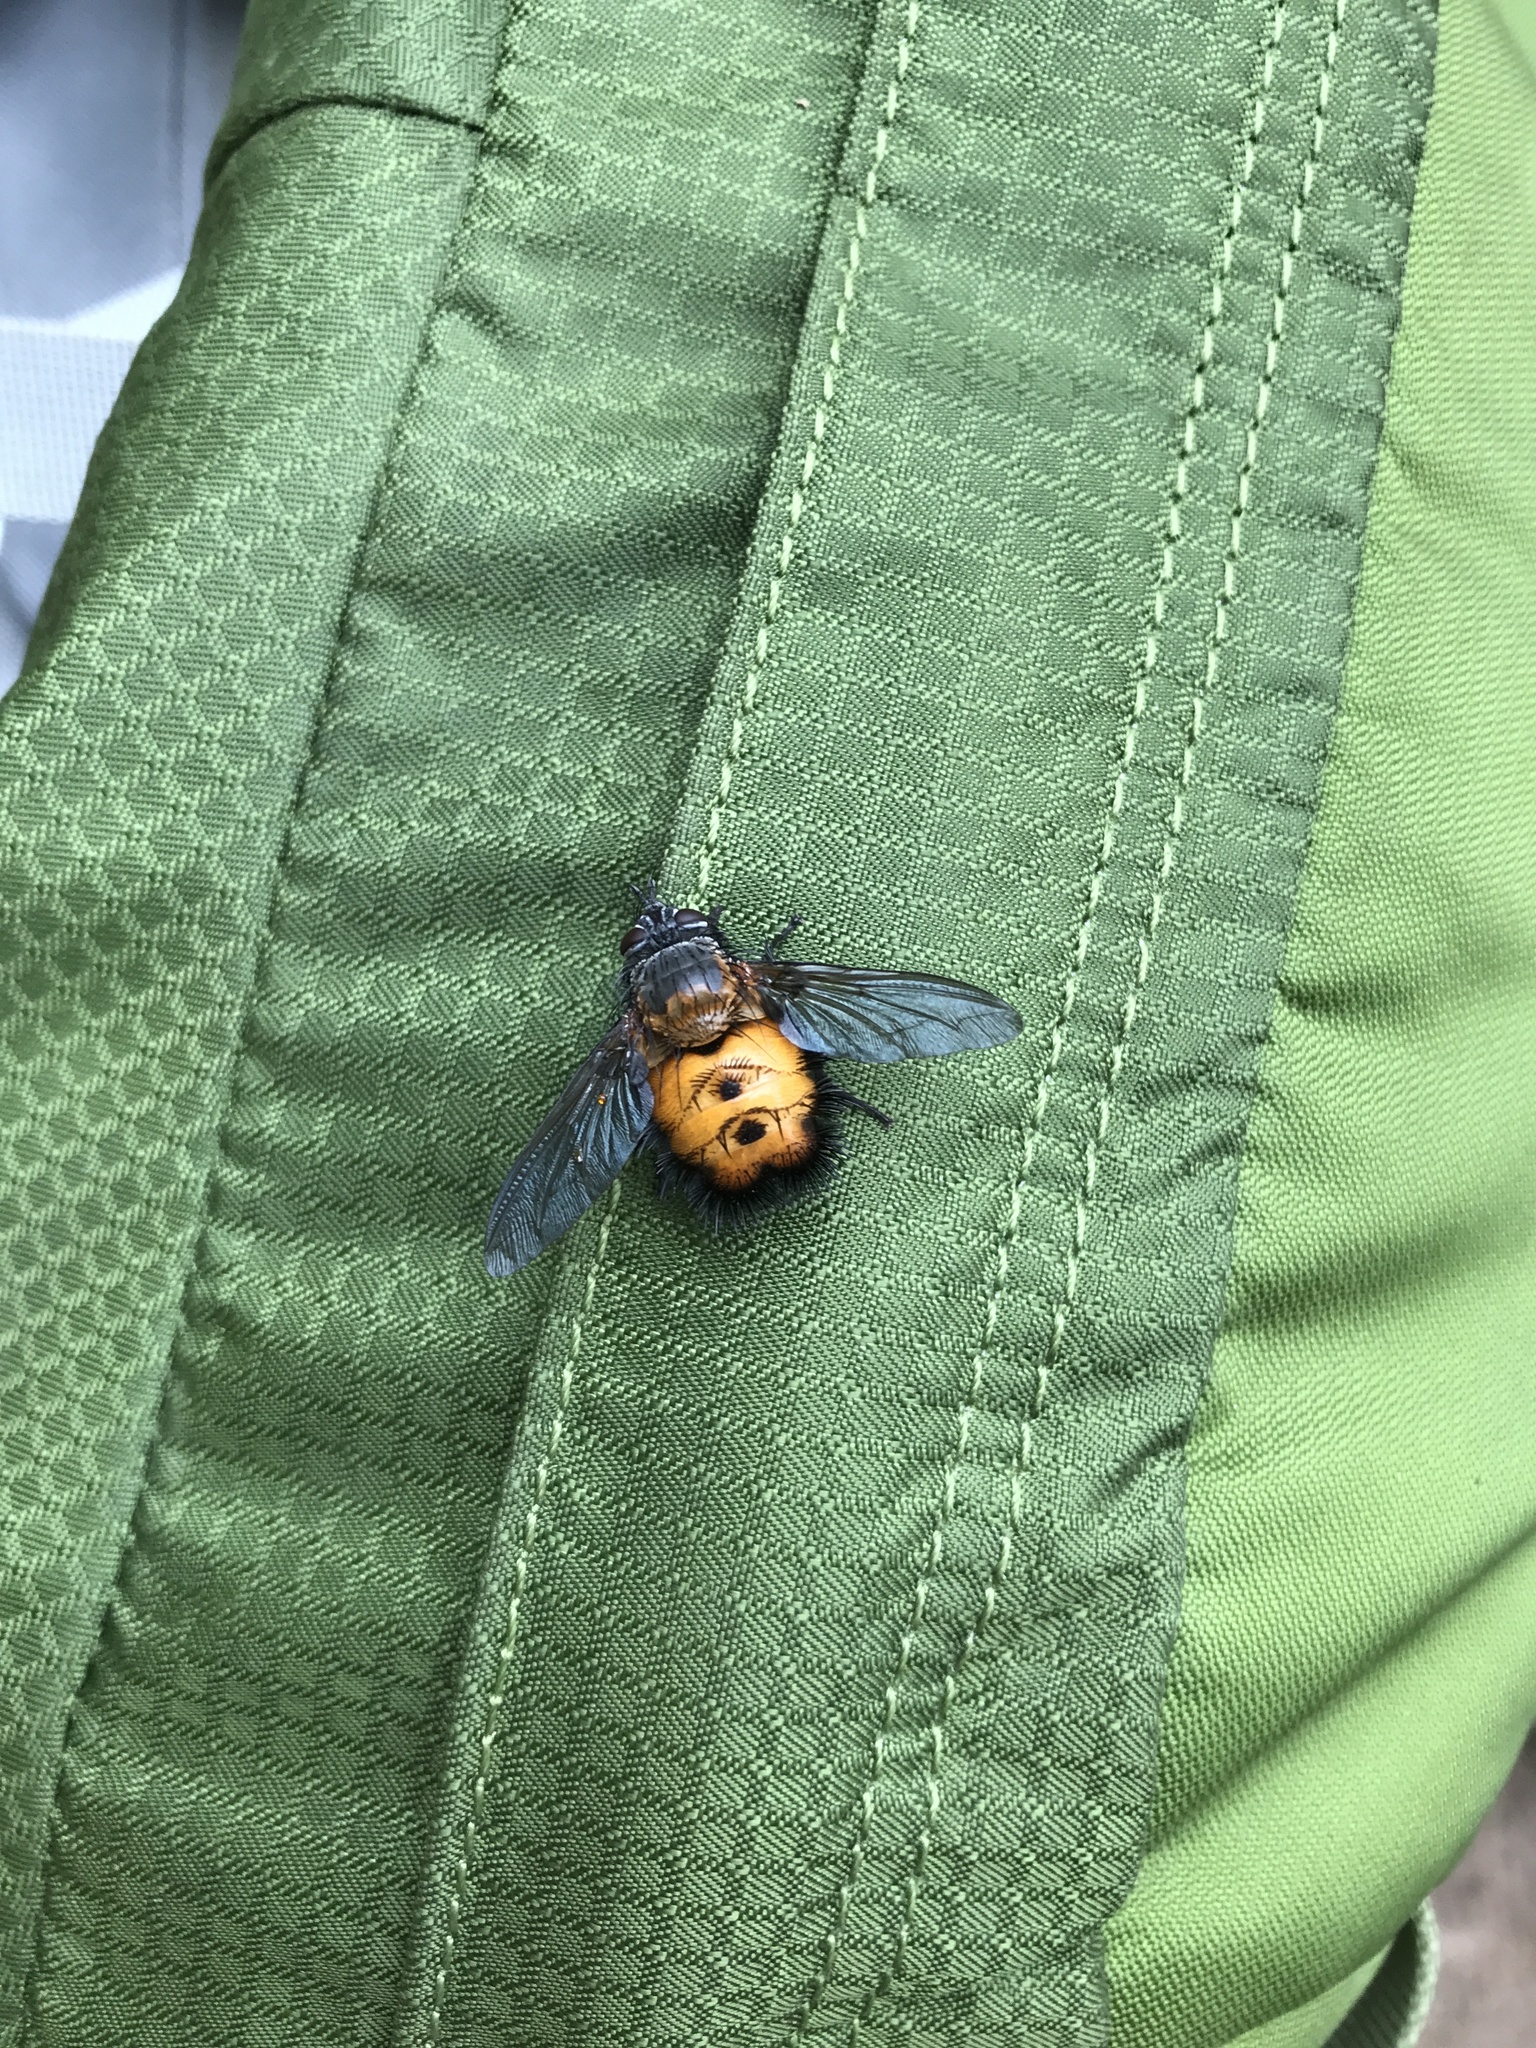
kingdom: Animalia
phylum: Arthropoda
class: Insecta
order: Diptera
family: Tachinidae
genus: Paradejeania
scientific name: Paradejeania rutilioides
